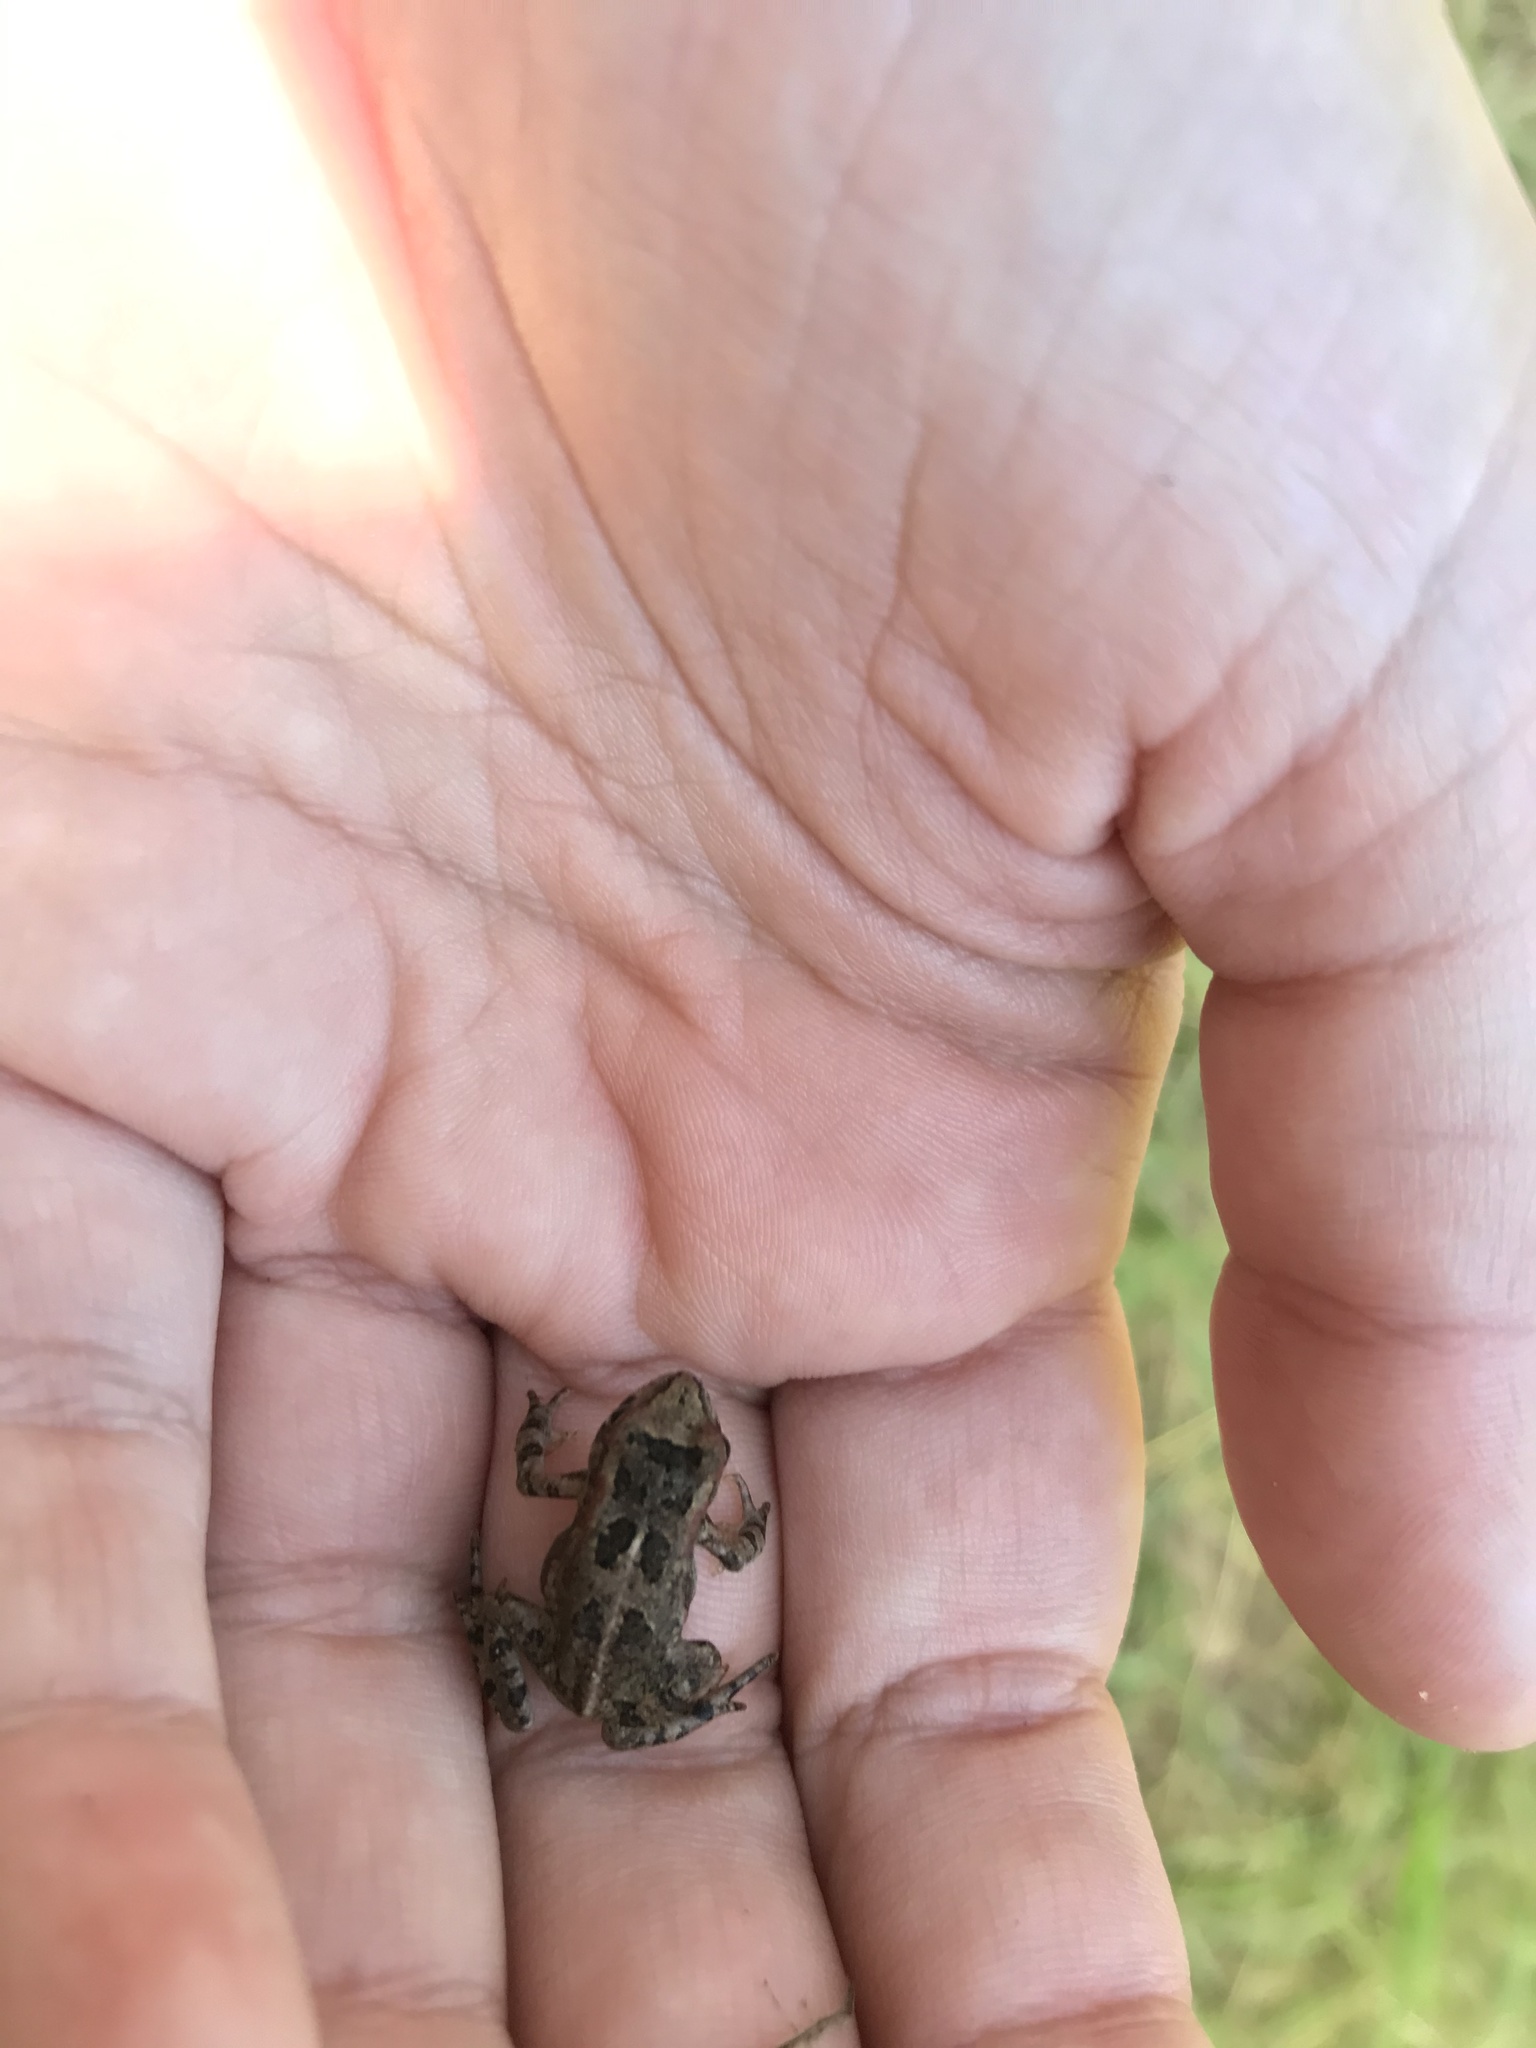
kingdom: Animalia
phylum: Chordata
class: Amphibia
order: Anura
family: Bufonidae
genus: Sclerophrys
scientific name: Sclerophrys capensis
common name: Ranger’s toad
